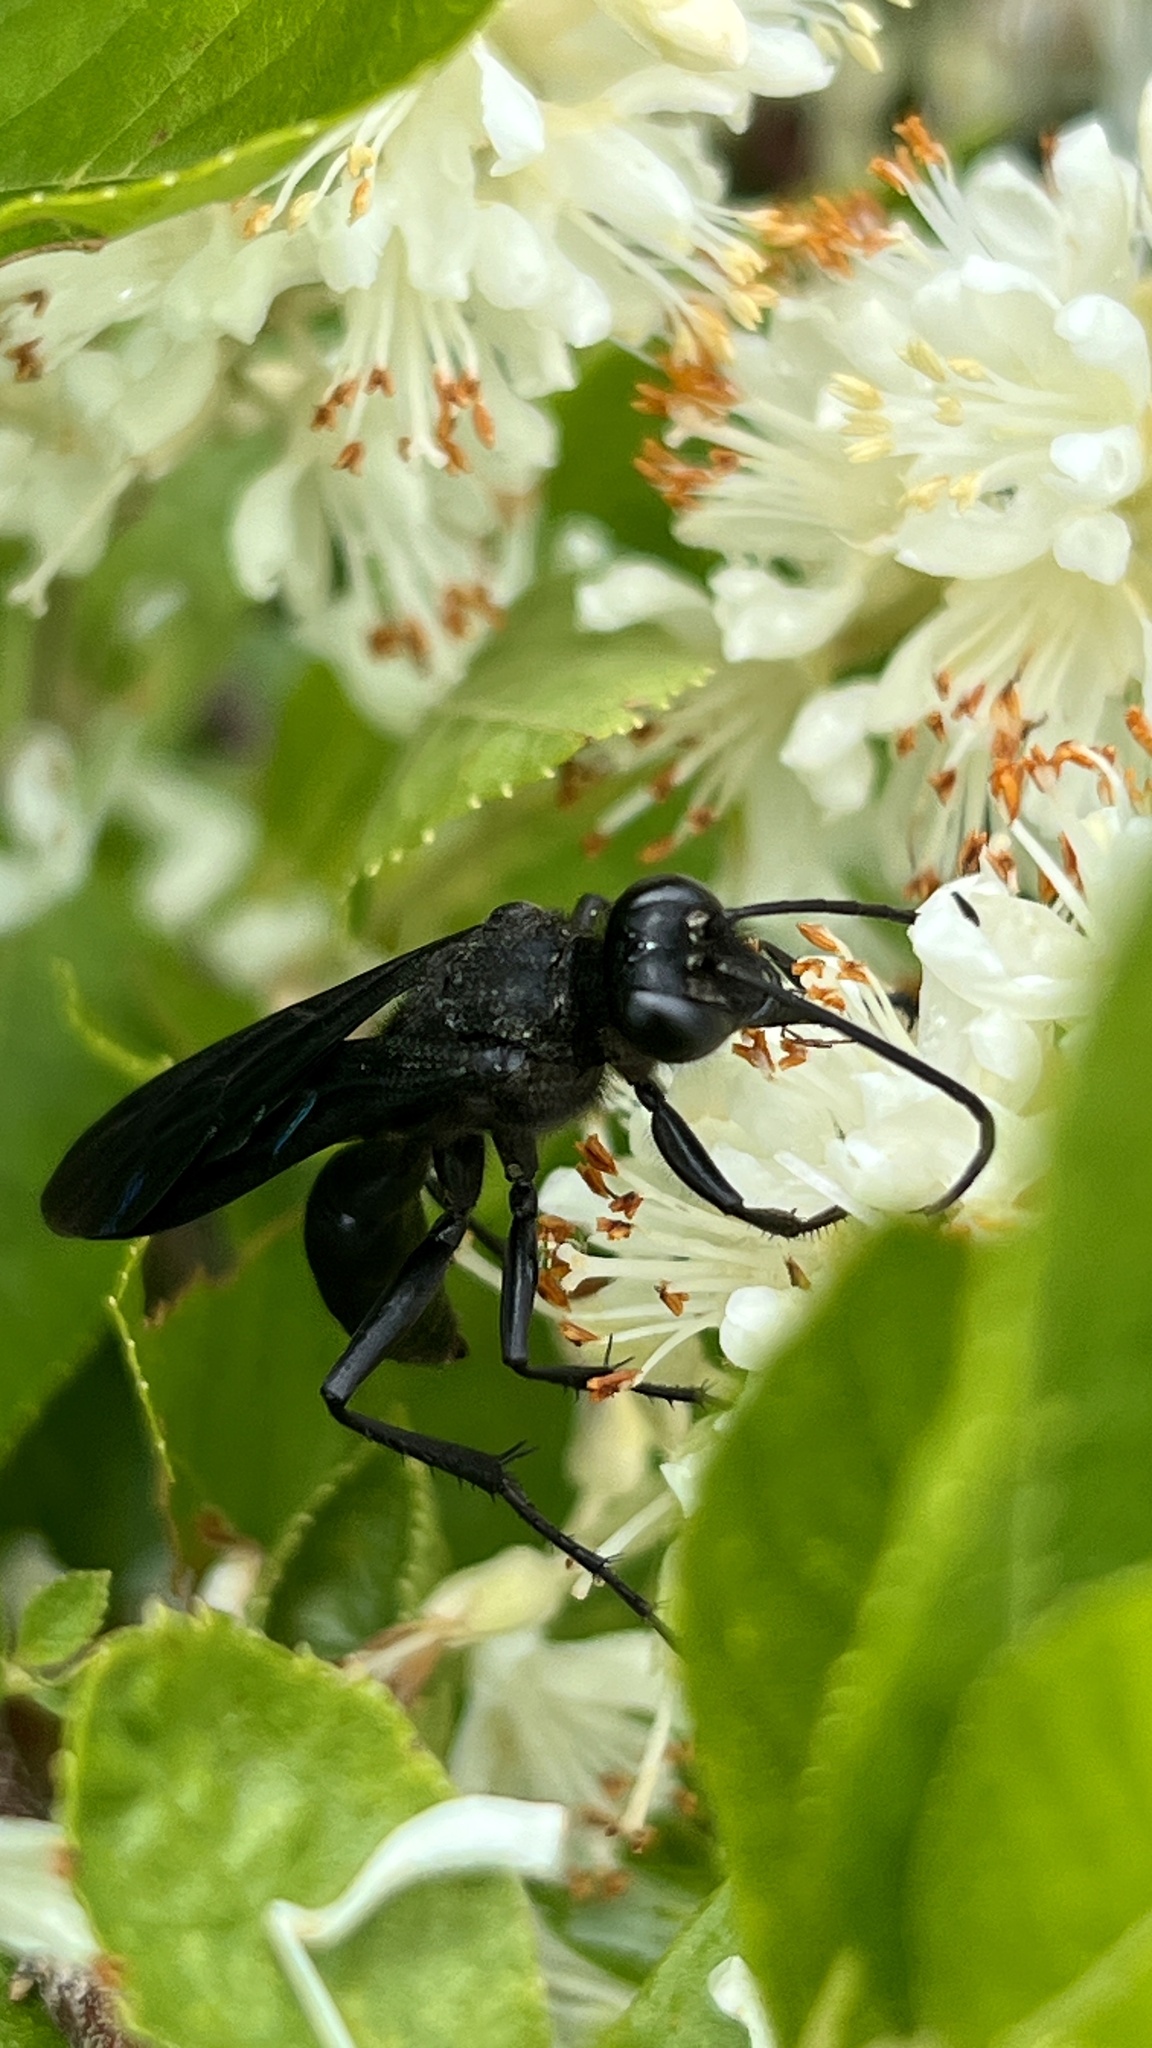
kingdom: Animalia
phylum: Arthropoda
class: Insecta
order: Hymenoptera
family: Sphecidae
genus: Sphex
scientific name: Sphex pensylvanicus
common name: Great black digger wasp
